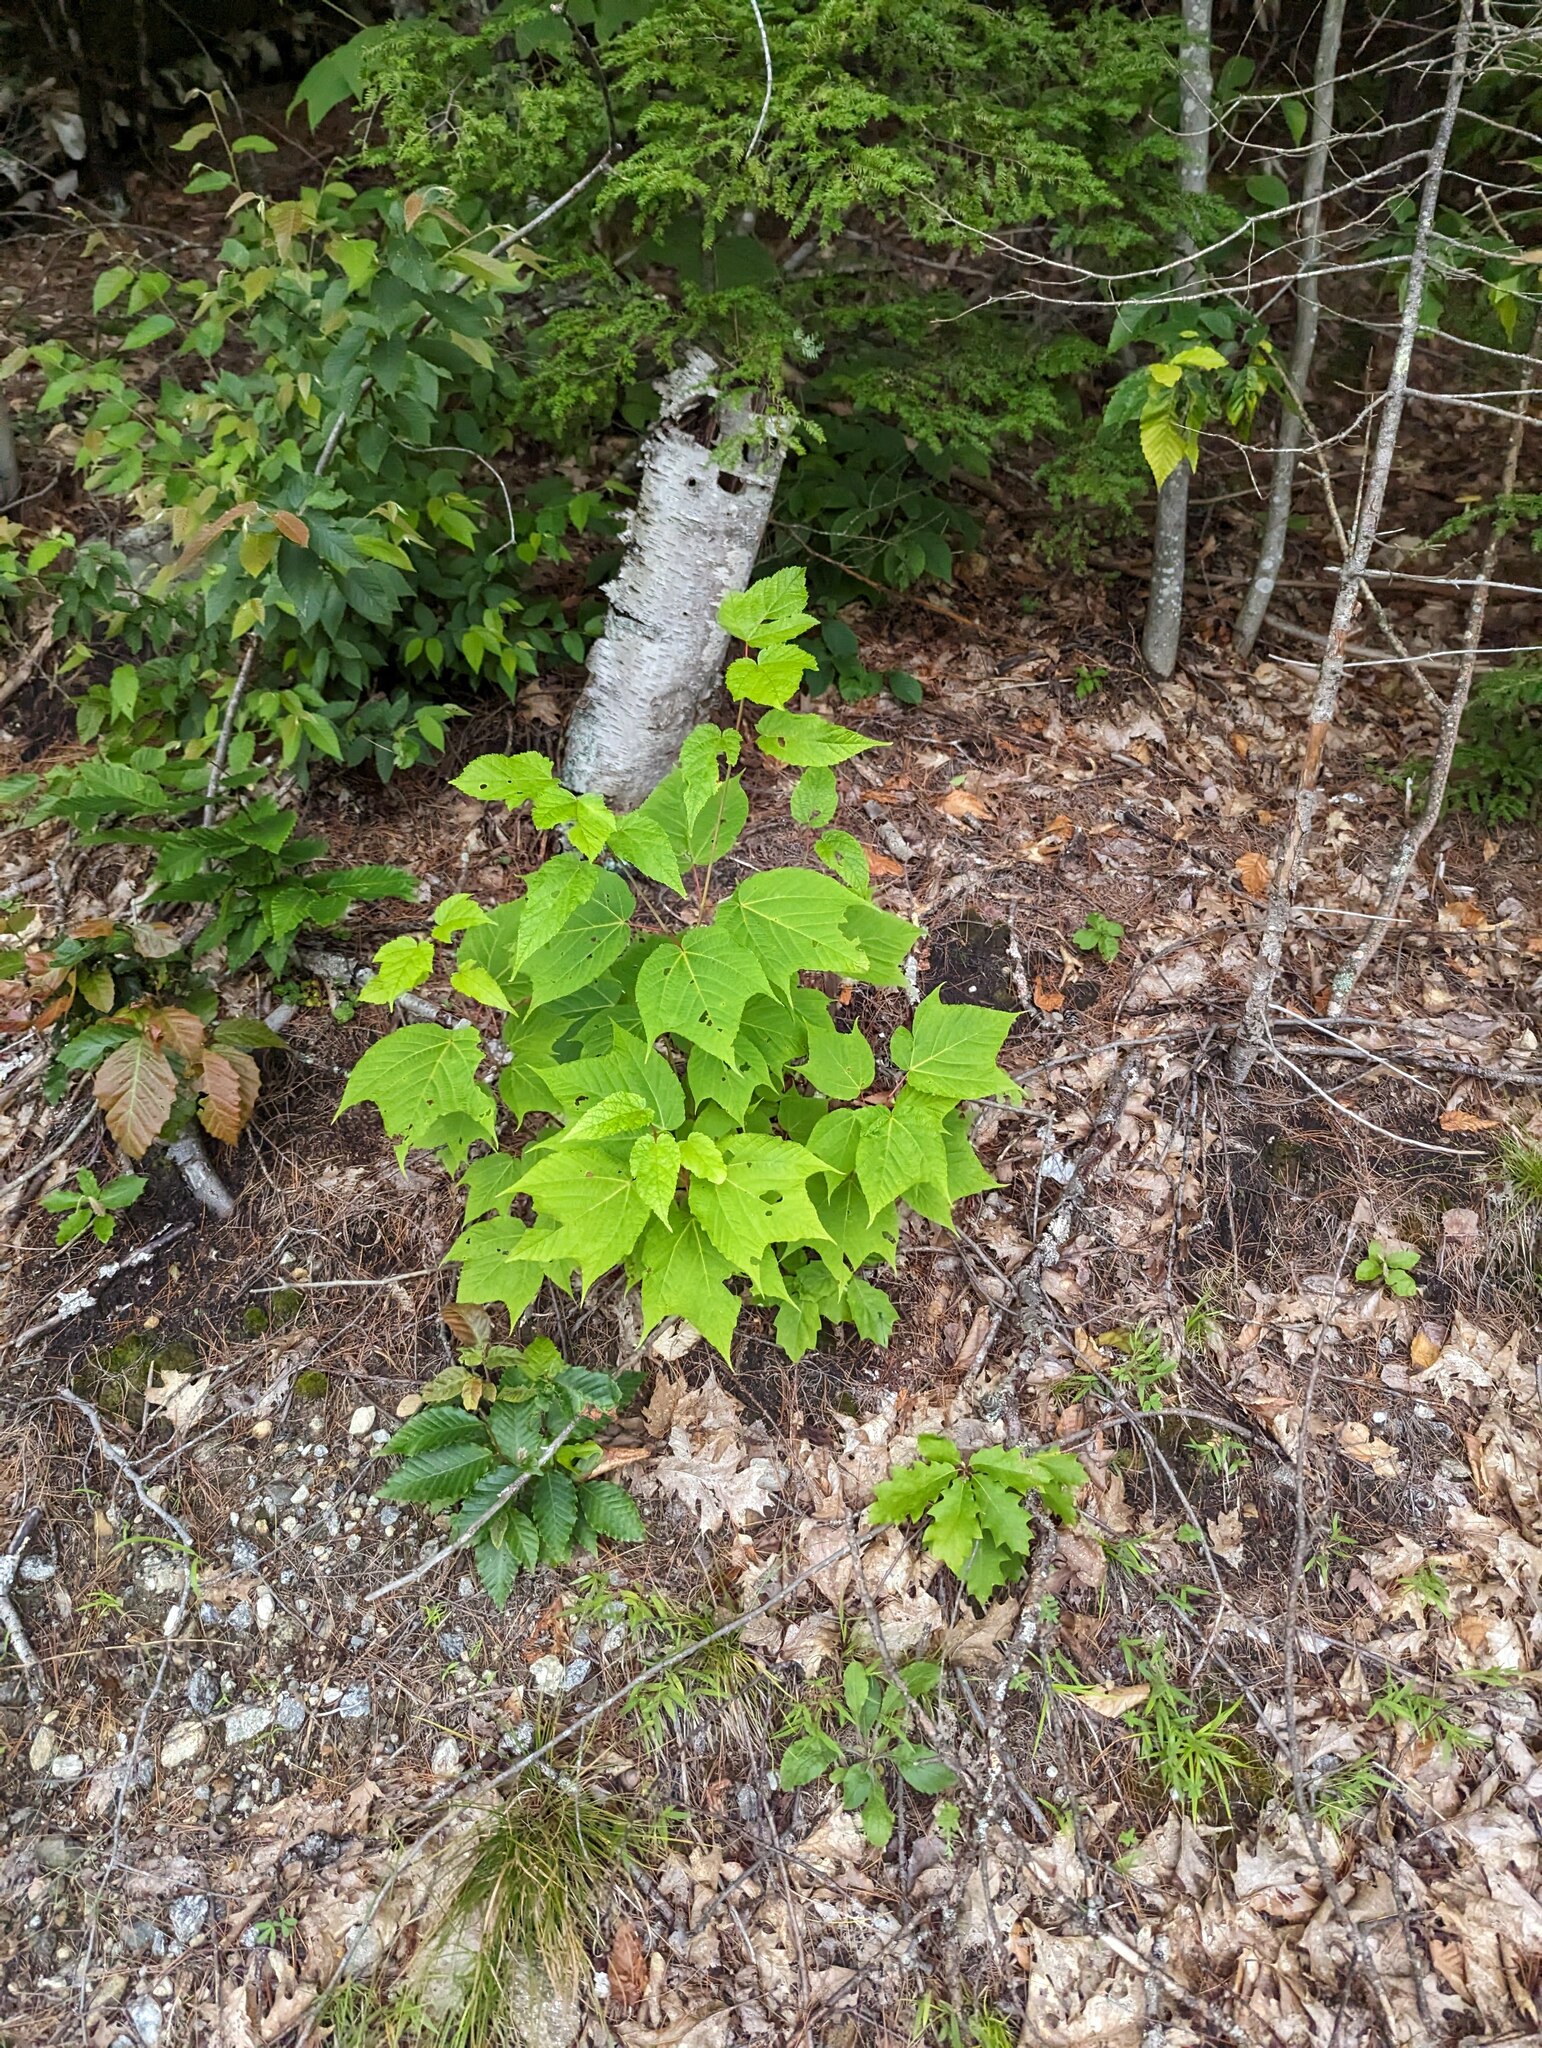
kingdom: Plantae
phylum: Tracheophyta
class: Magnoliopsida
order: Sapindales
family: Sapindaceae
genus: Acer
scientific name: Acer pensylvanicum
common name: Moosewood
